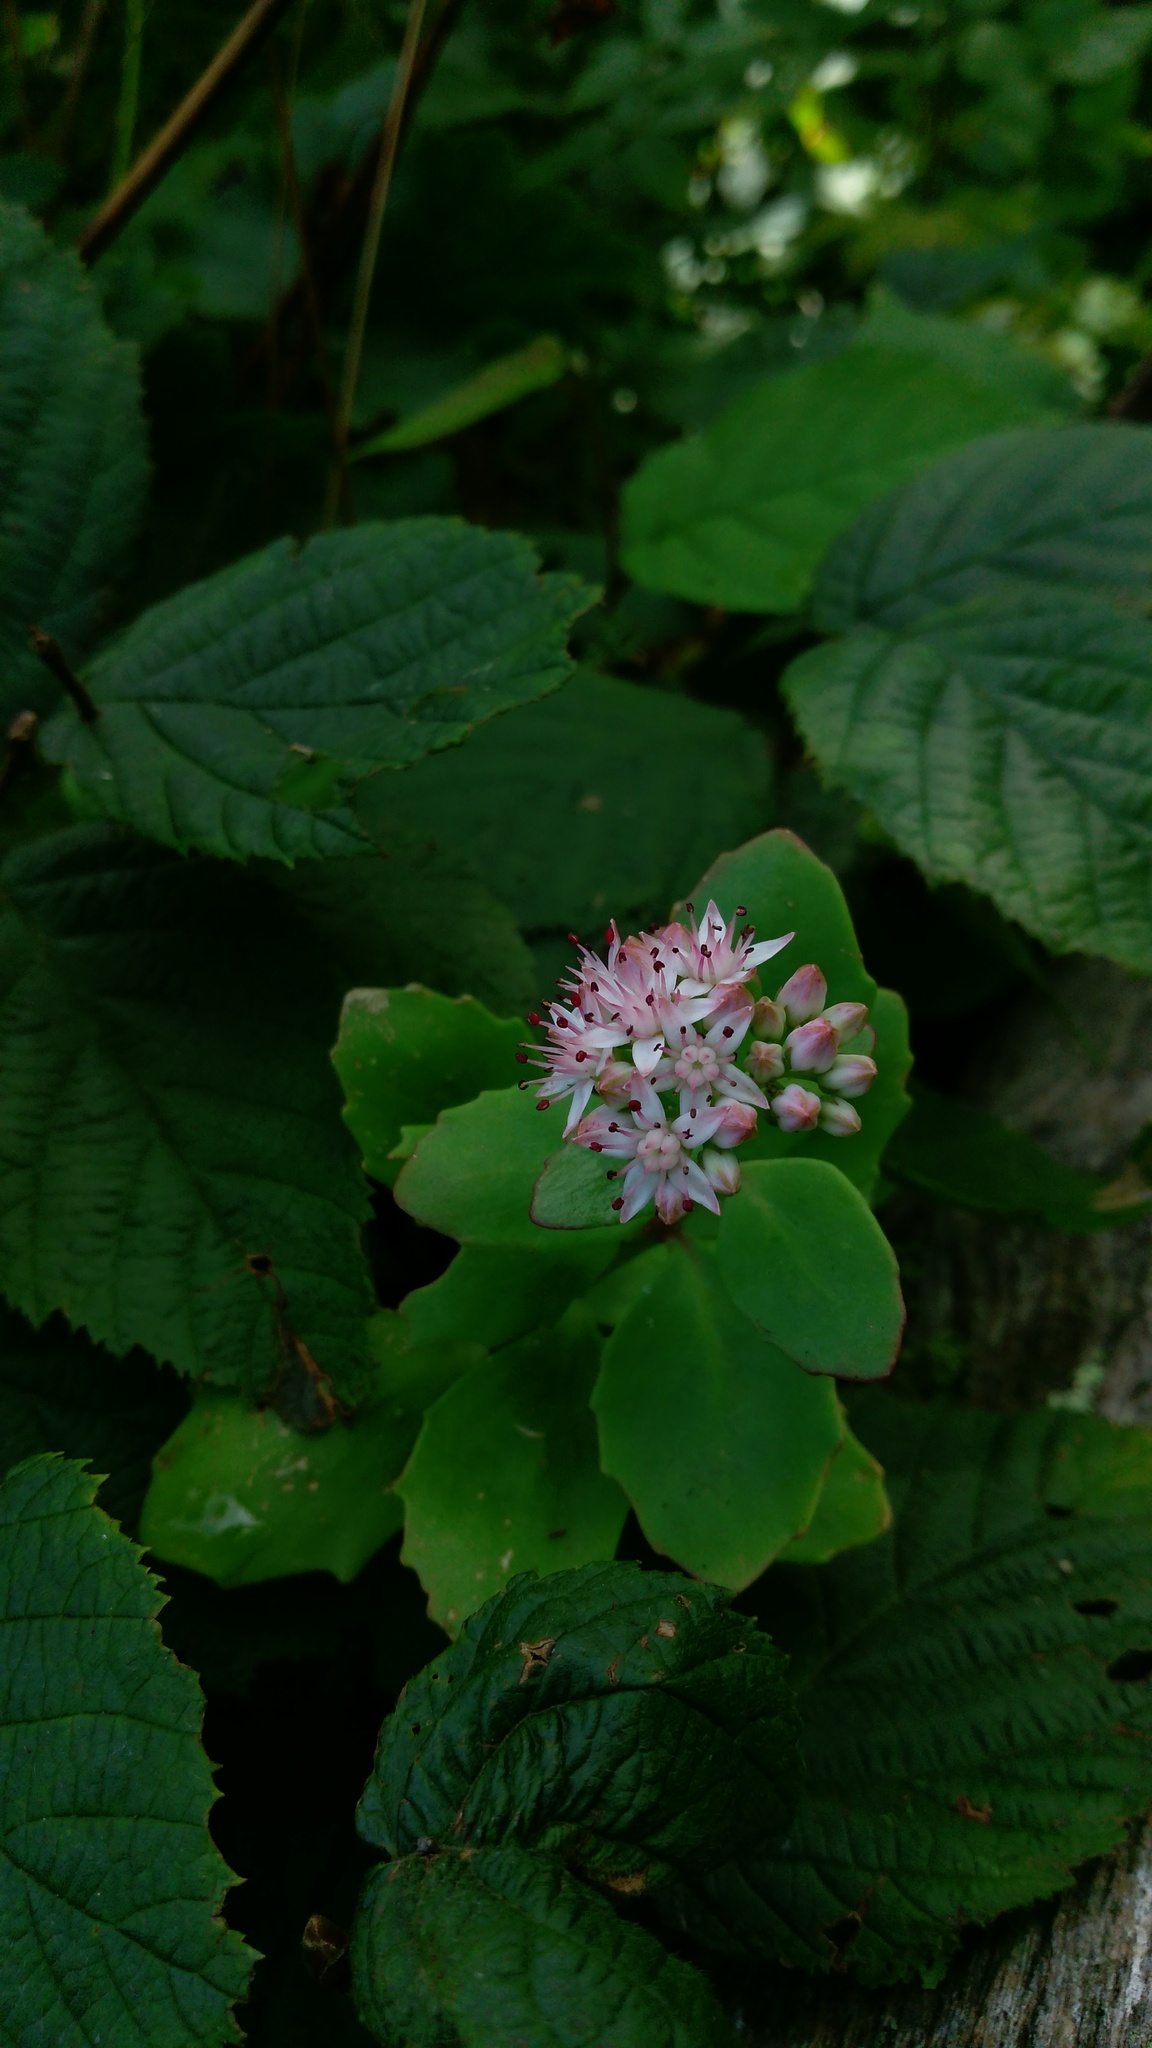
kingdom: Plantae
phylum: Tracheophyta
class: Magnoliopsida
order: Saxifragales
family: Crassulaceae
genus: Hylotelephium
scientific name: Hylotelephium telephioides
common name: Allegheny stonecrop
